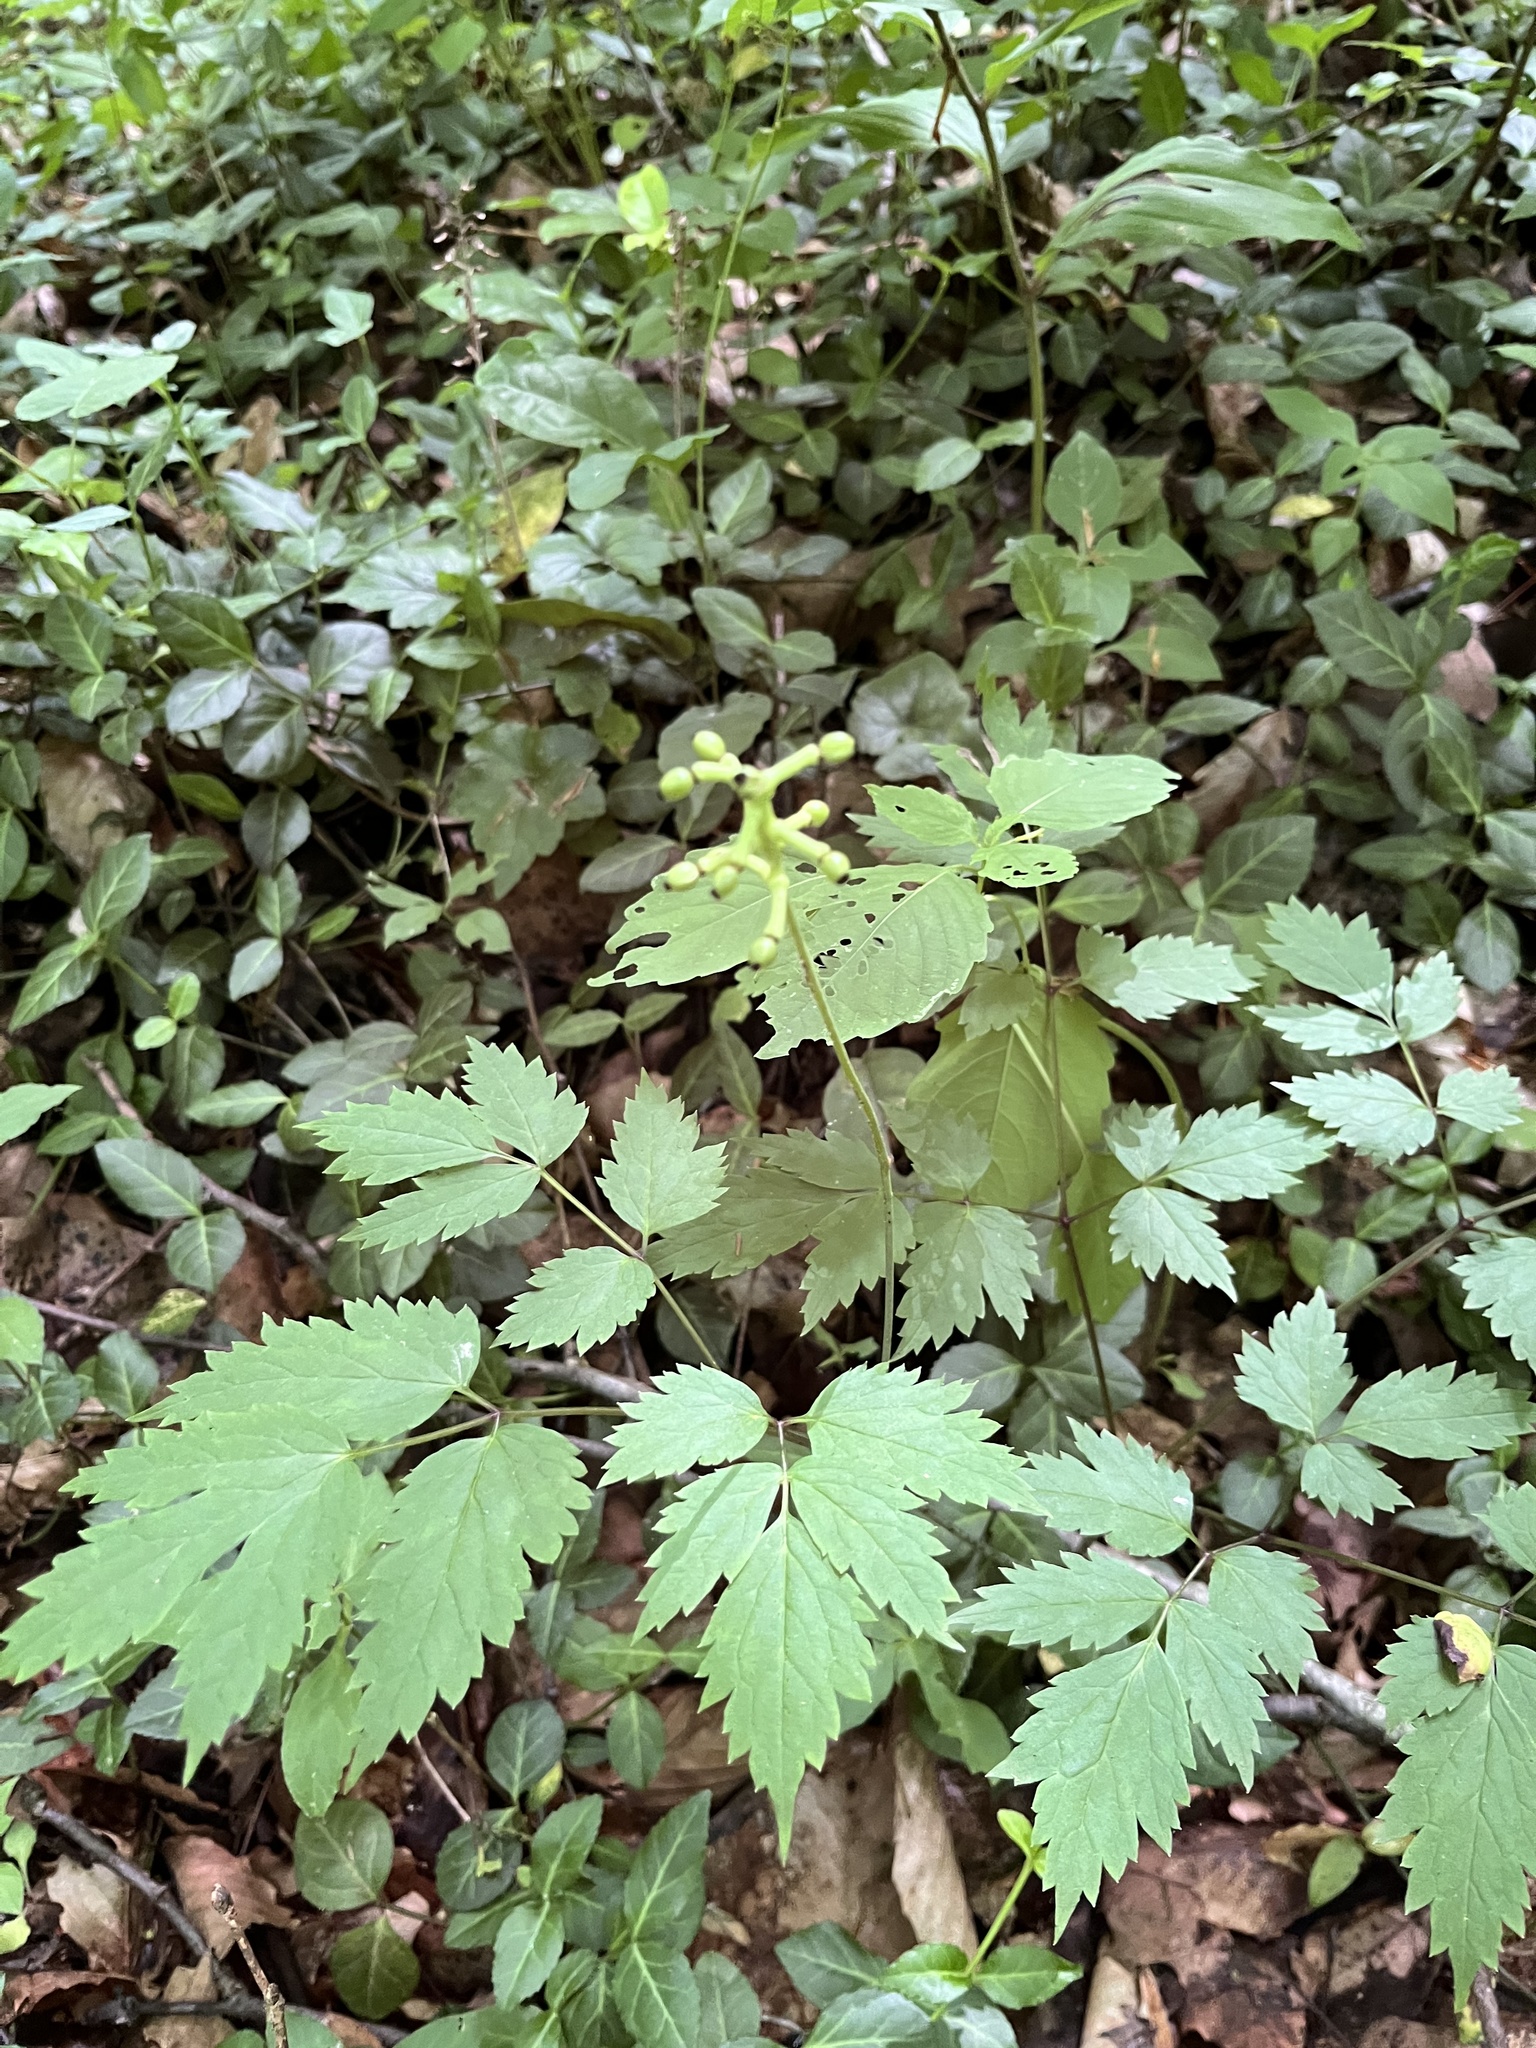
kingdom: Plantae
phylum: Tracheophyta
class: Magnoliopsida
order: Ranunculales
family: Ranunculaceae
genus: Actaea
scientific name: Actaea pachypoda
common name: Doll's-eyes
